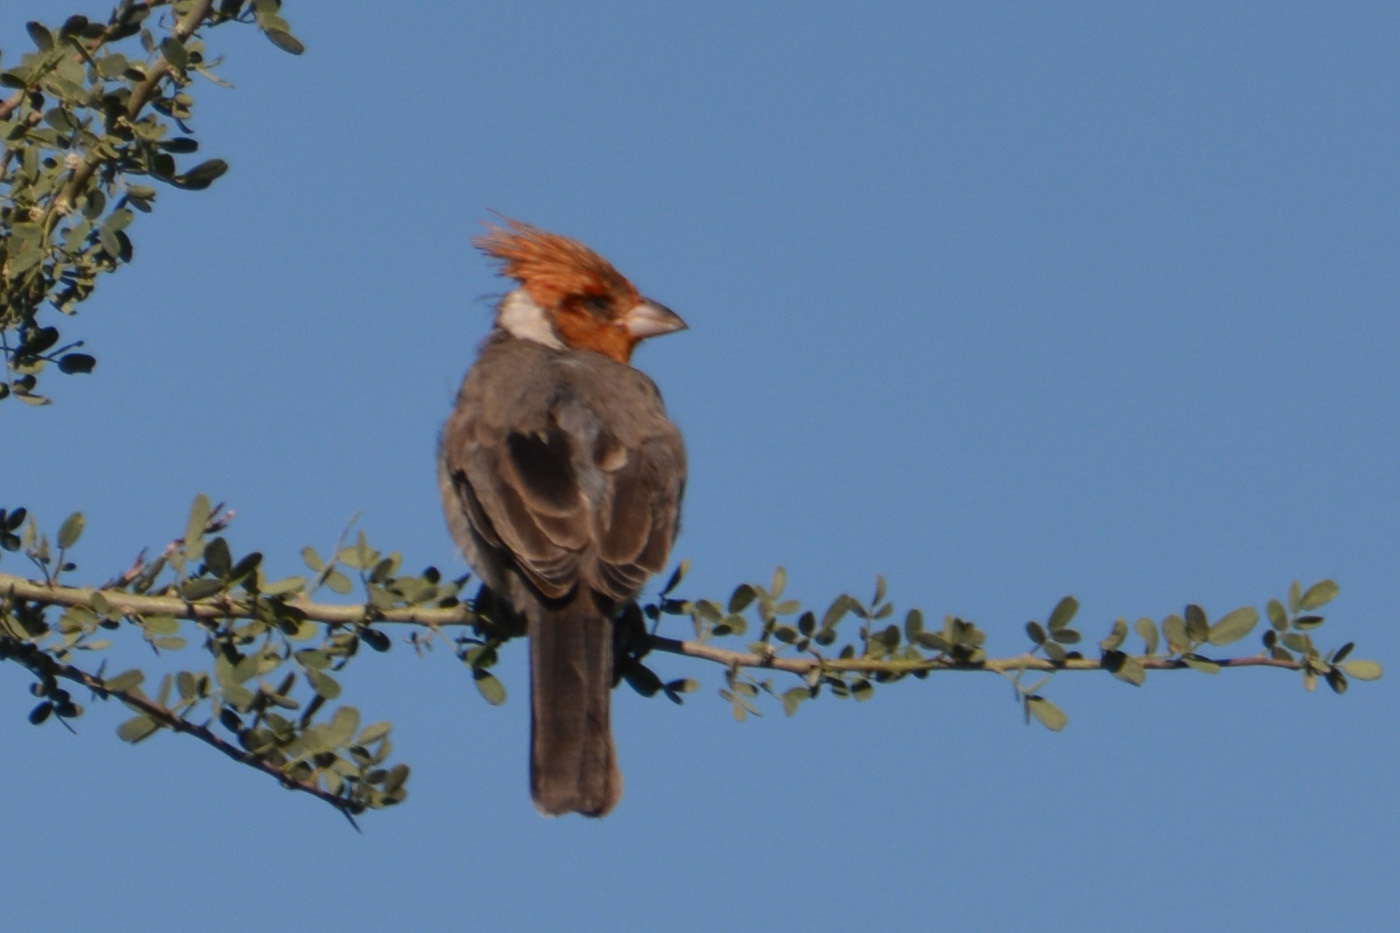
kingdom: Animalia
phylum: Chordata
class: Aves
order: Passeriformes
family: Thraupidae
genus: Paroaria
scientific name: Paroaria coronata
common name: Red-crested cardinal
